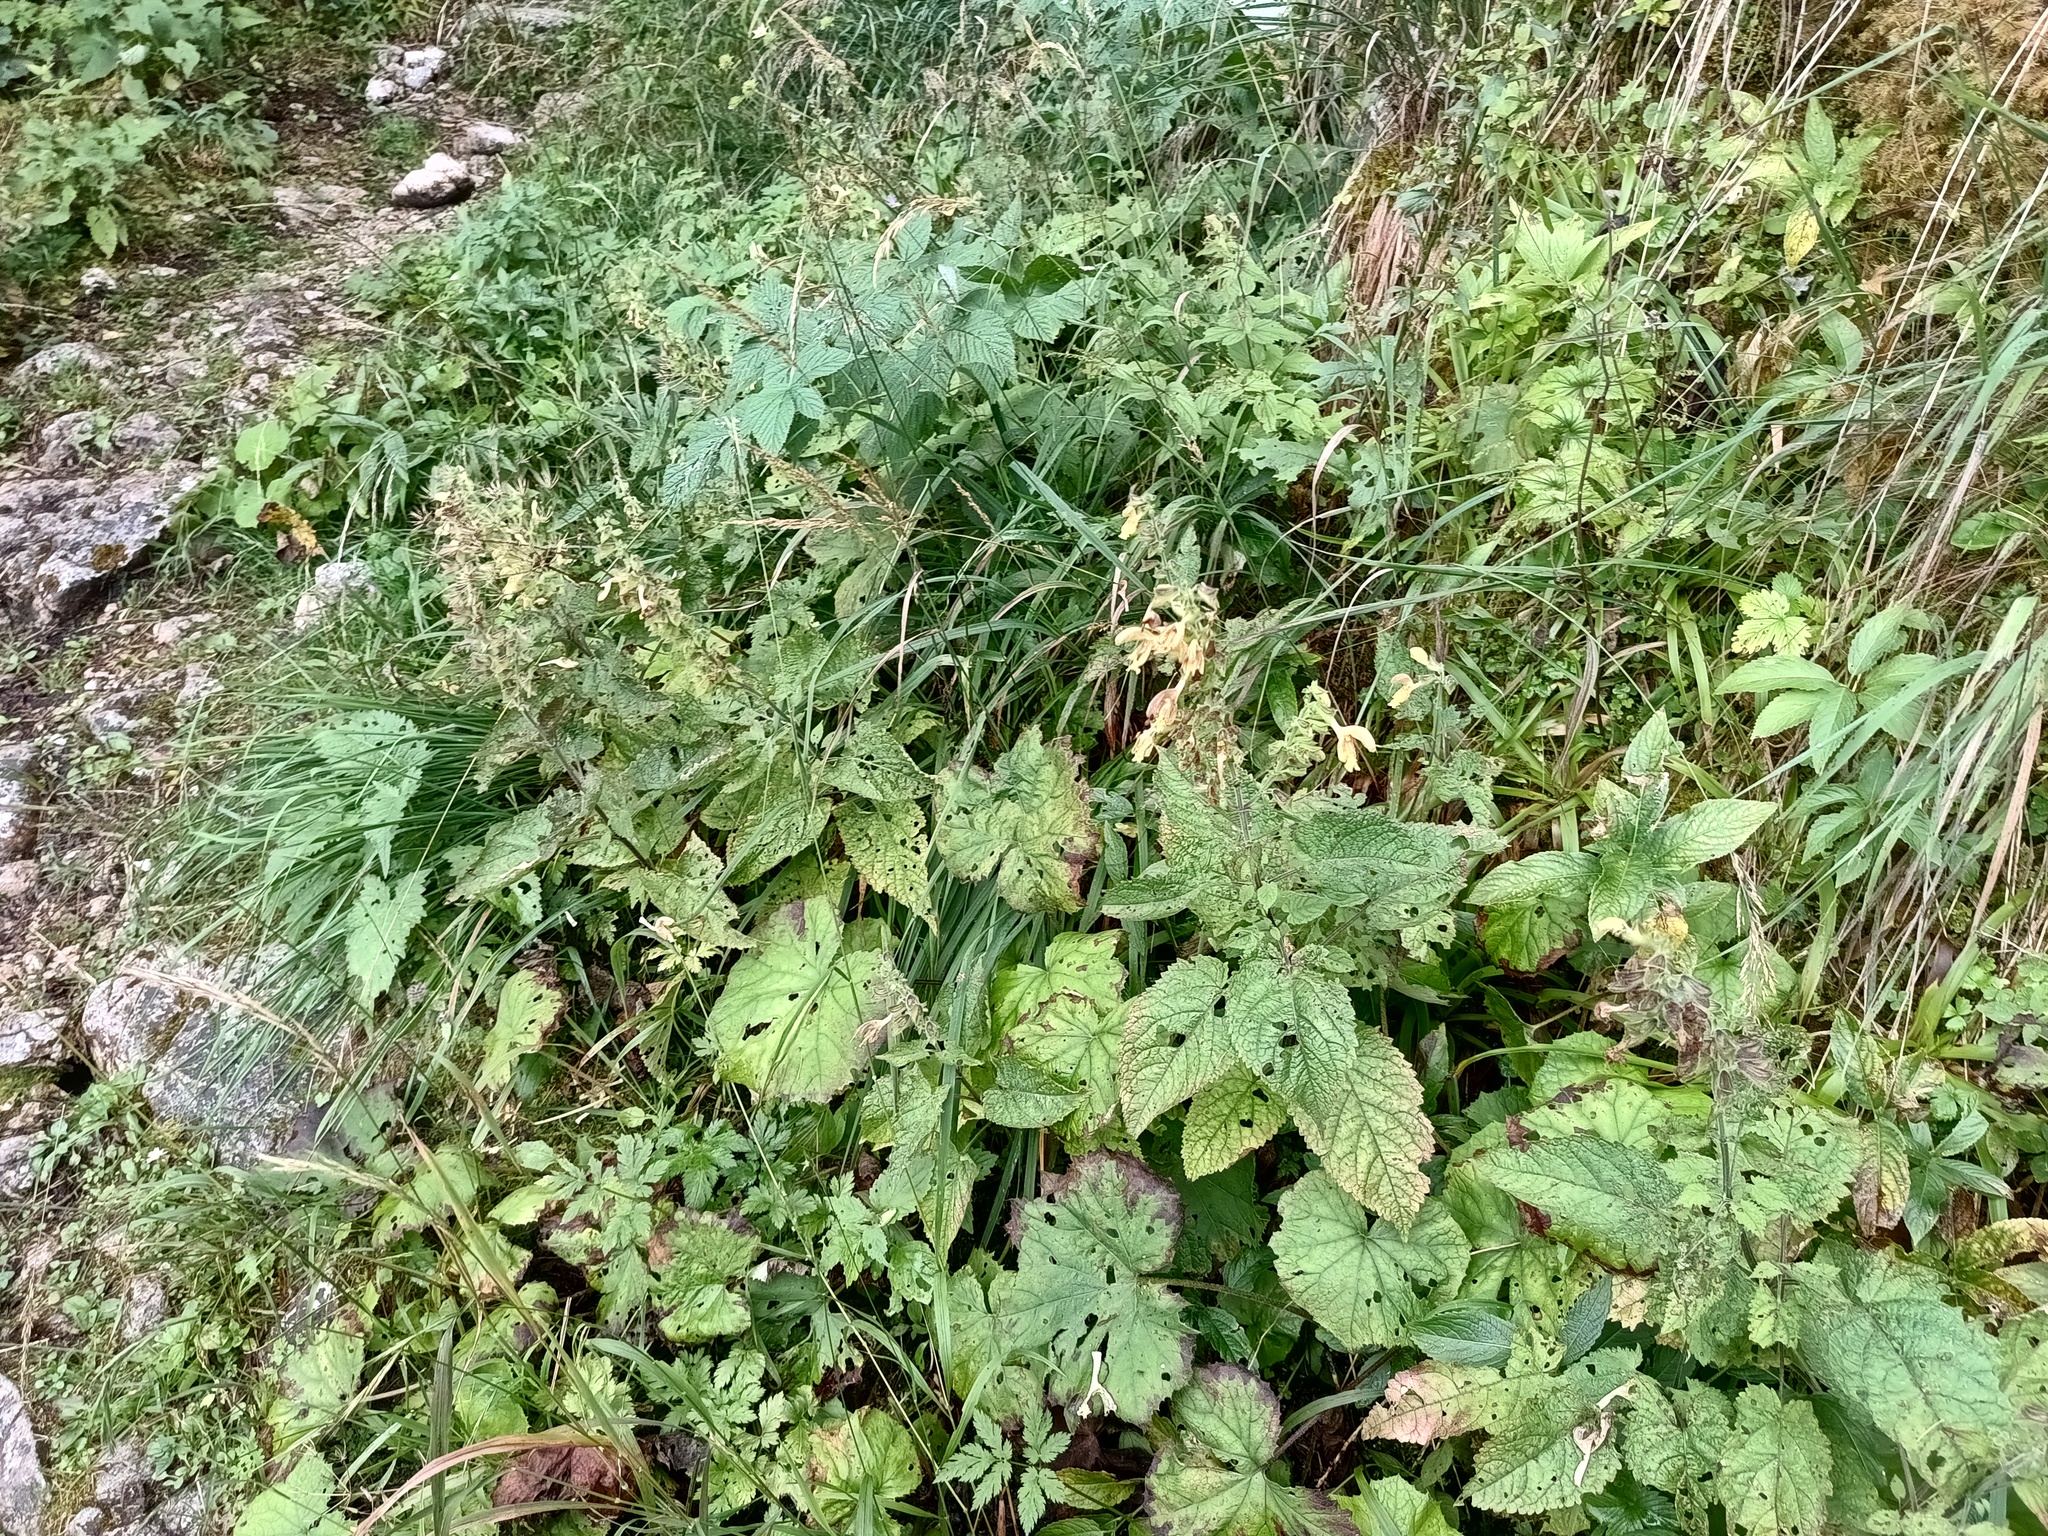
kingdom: Plantae
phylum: Tracheophyta
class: Magnoliopsida
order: Lamiales
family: Lamiaceae
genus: Salvia
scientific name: Salvia glutinosa
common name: Sticky clary
